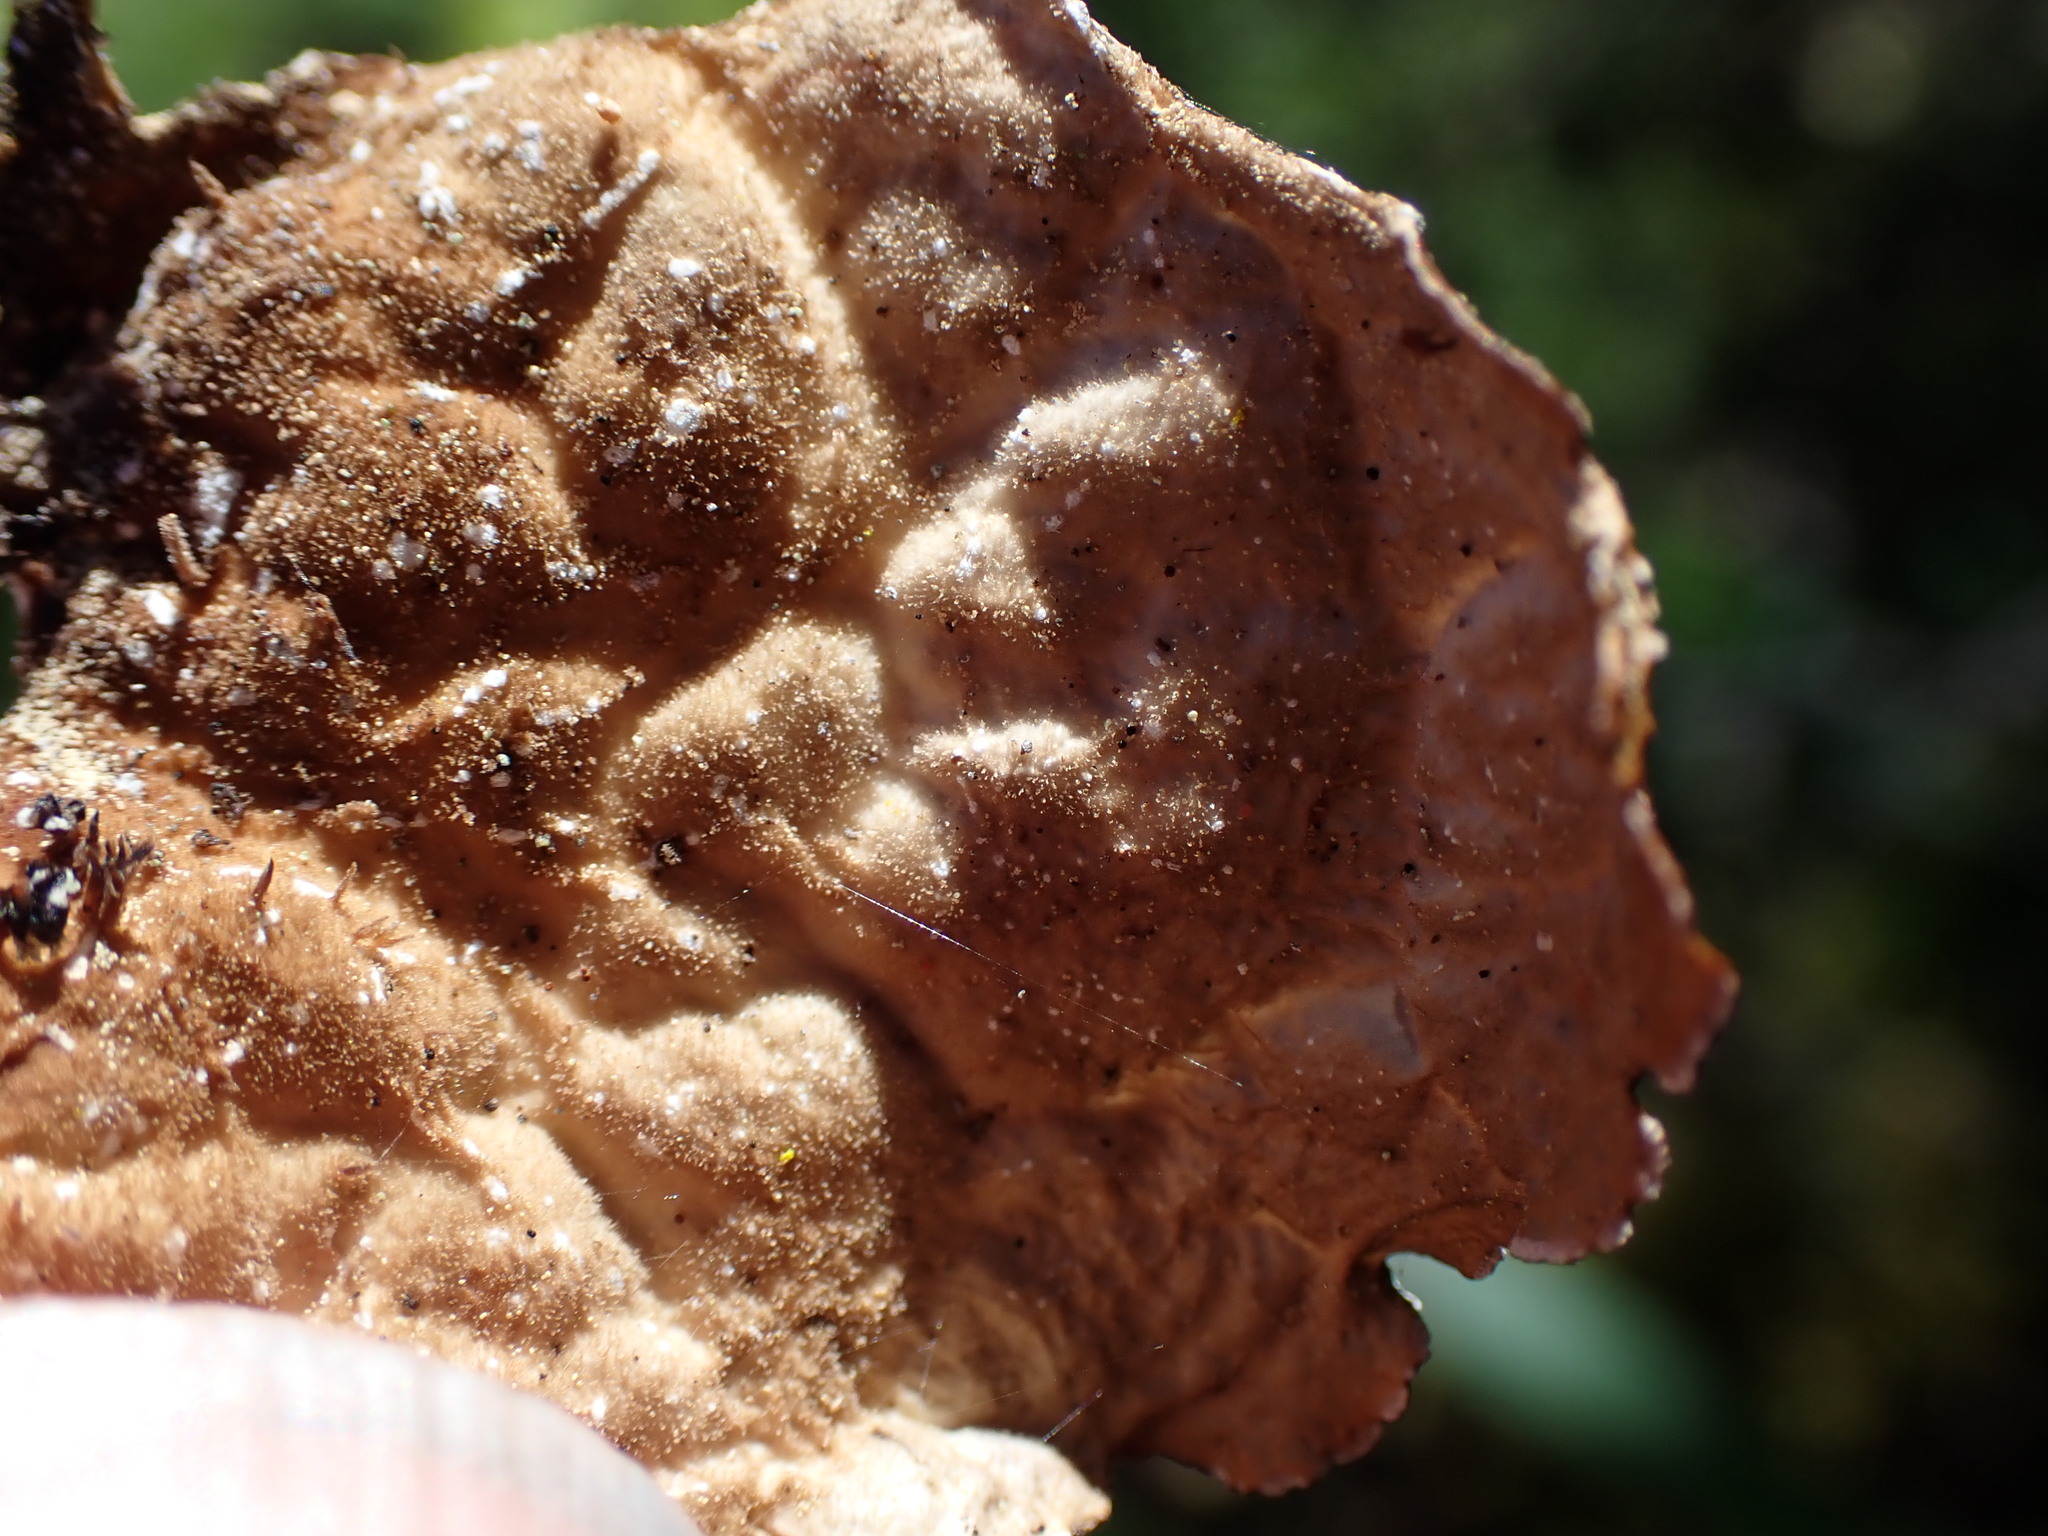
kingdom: Fungi
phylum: Ascomycota
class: Lecanoromycetes
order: Peltigerales
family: Lobariaceae
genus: Lobaria
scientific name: Lobaria anomala
